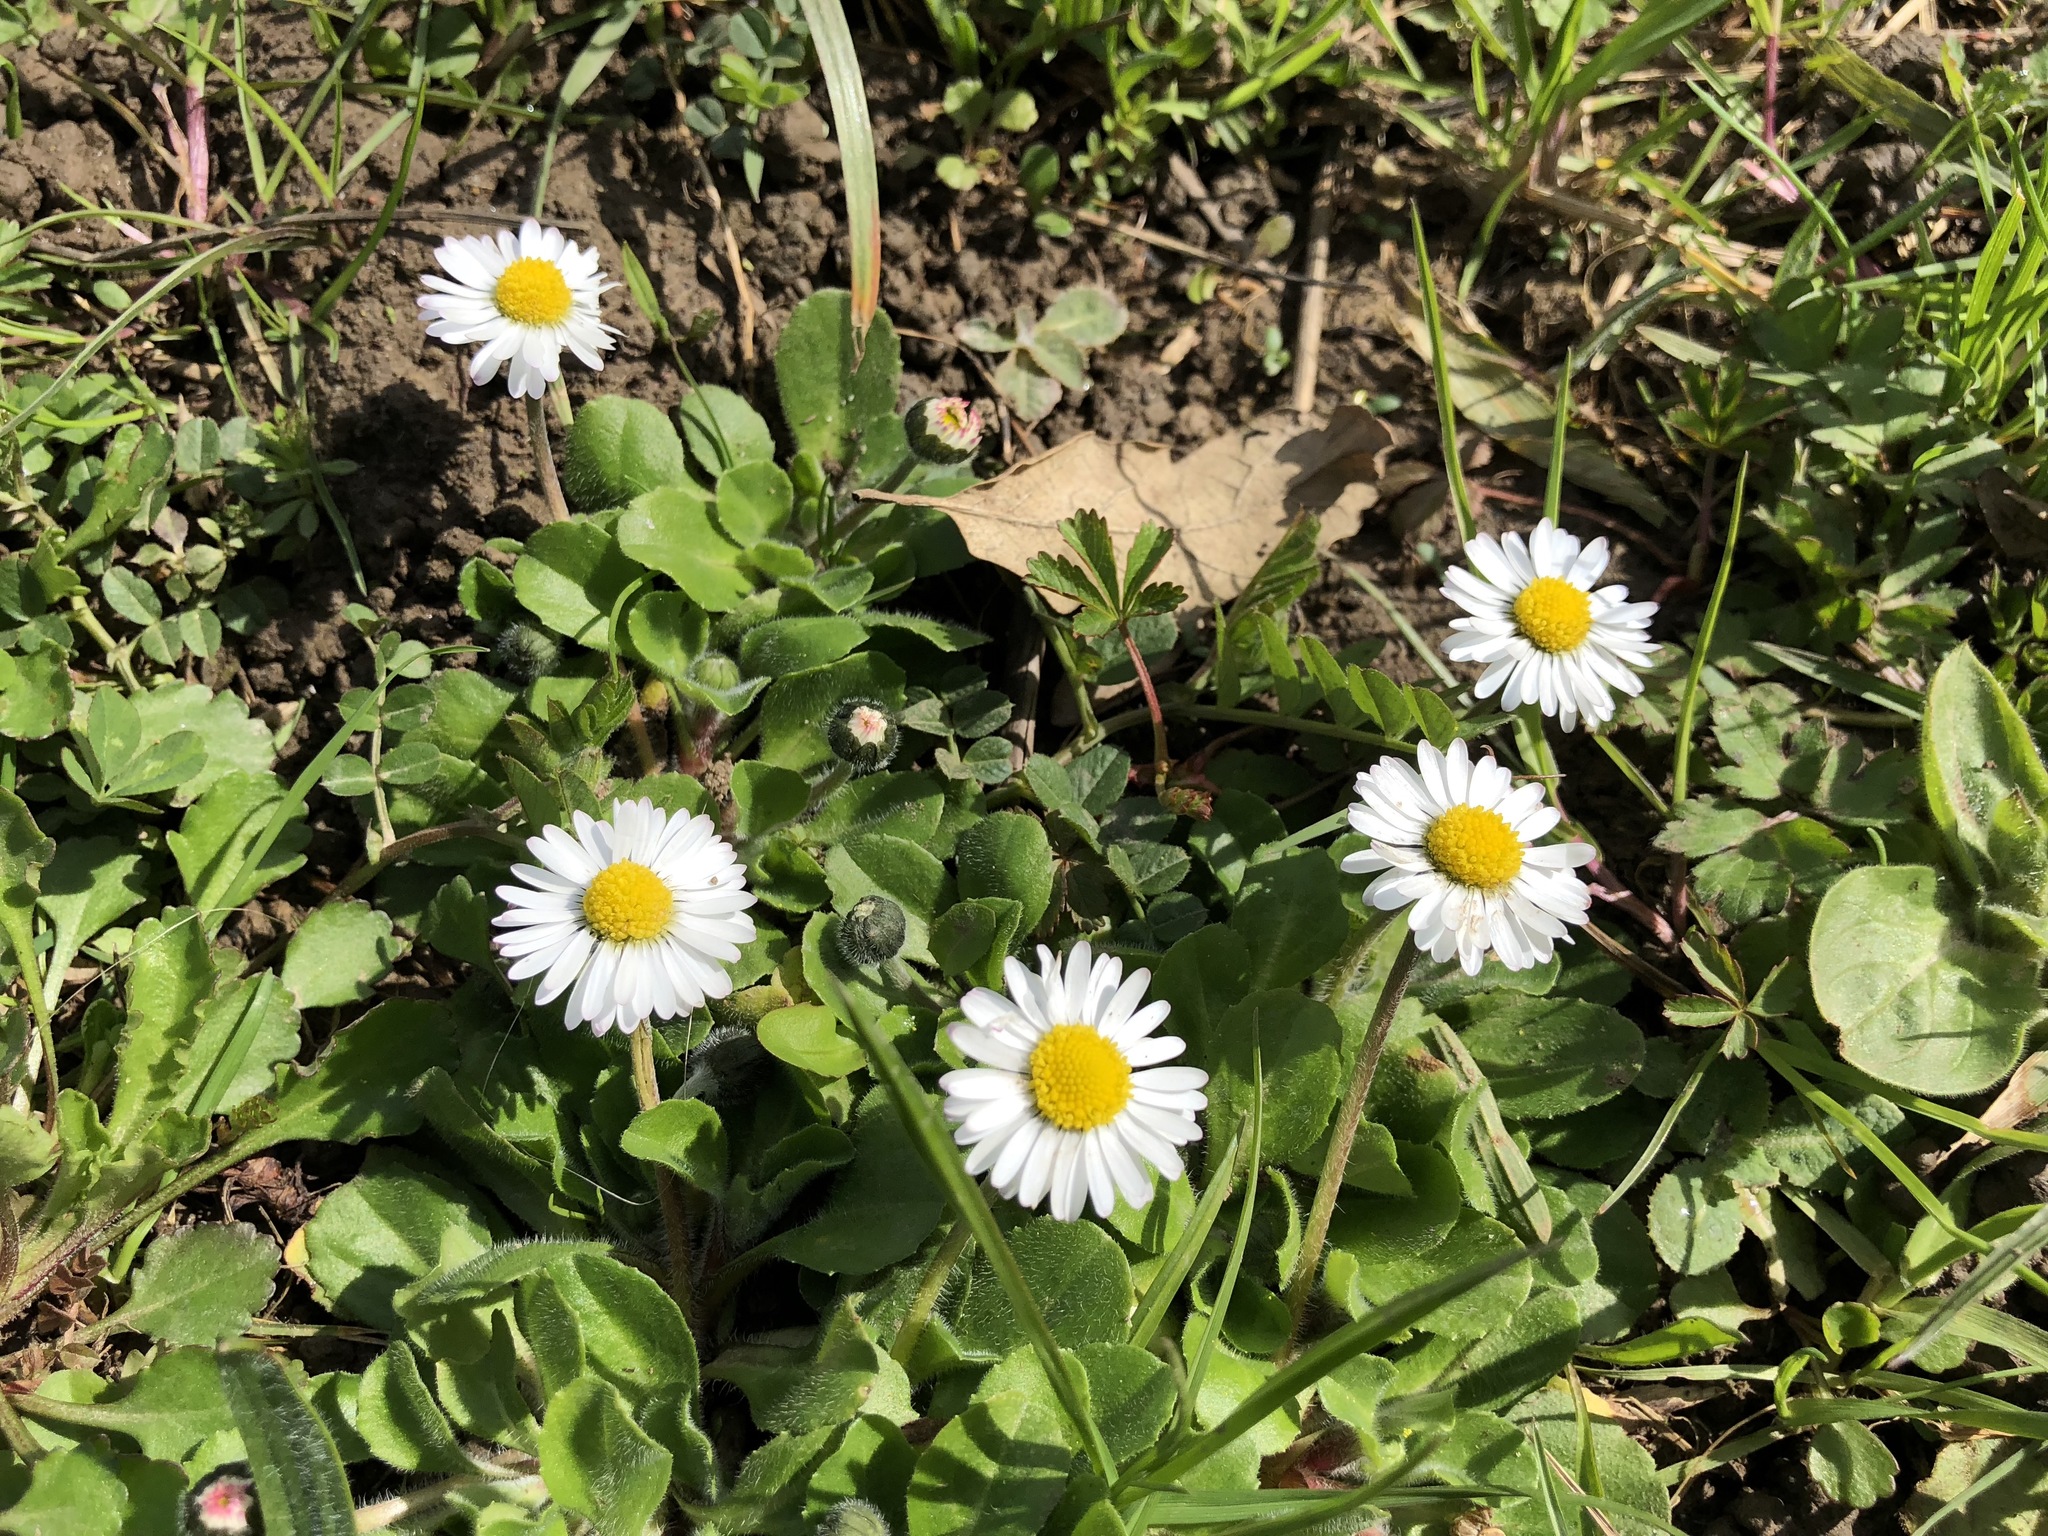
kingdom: Plantae
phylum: Tracheophyta
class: Magnoliopsida
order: Asterales
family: Asteraceae
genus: Bellis
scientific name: Bellis perennis
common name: Lawndaisy
